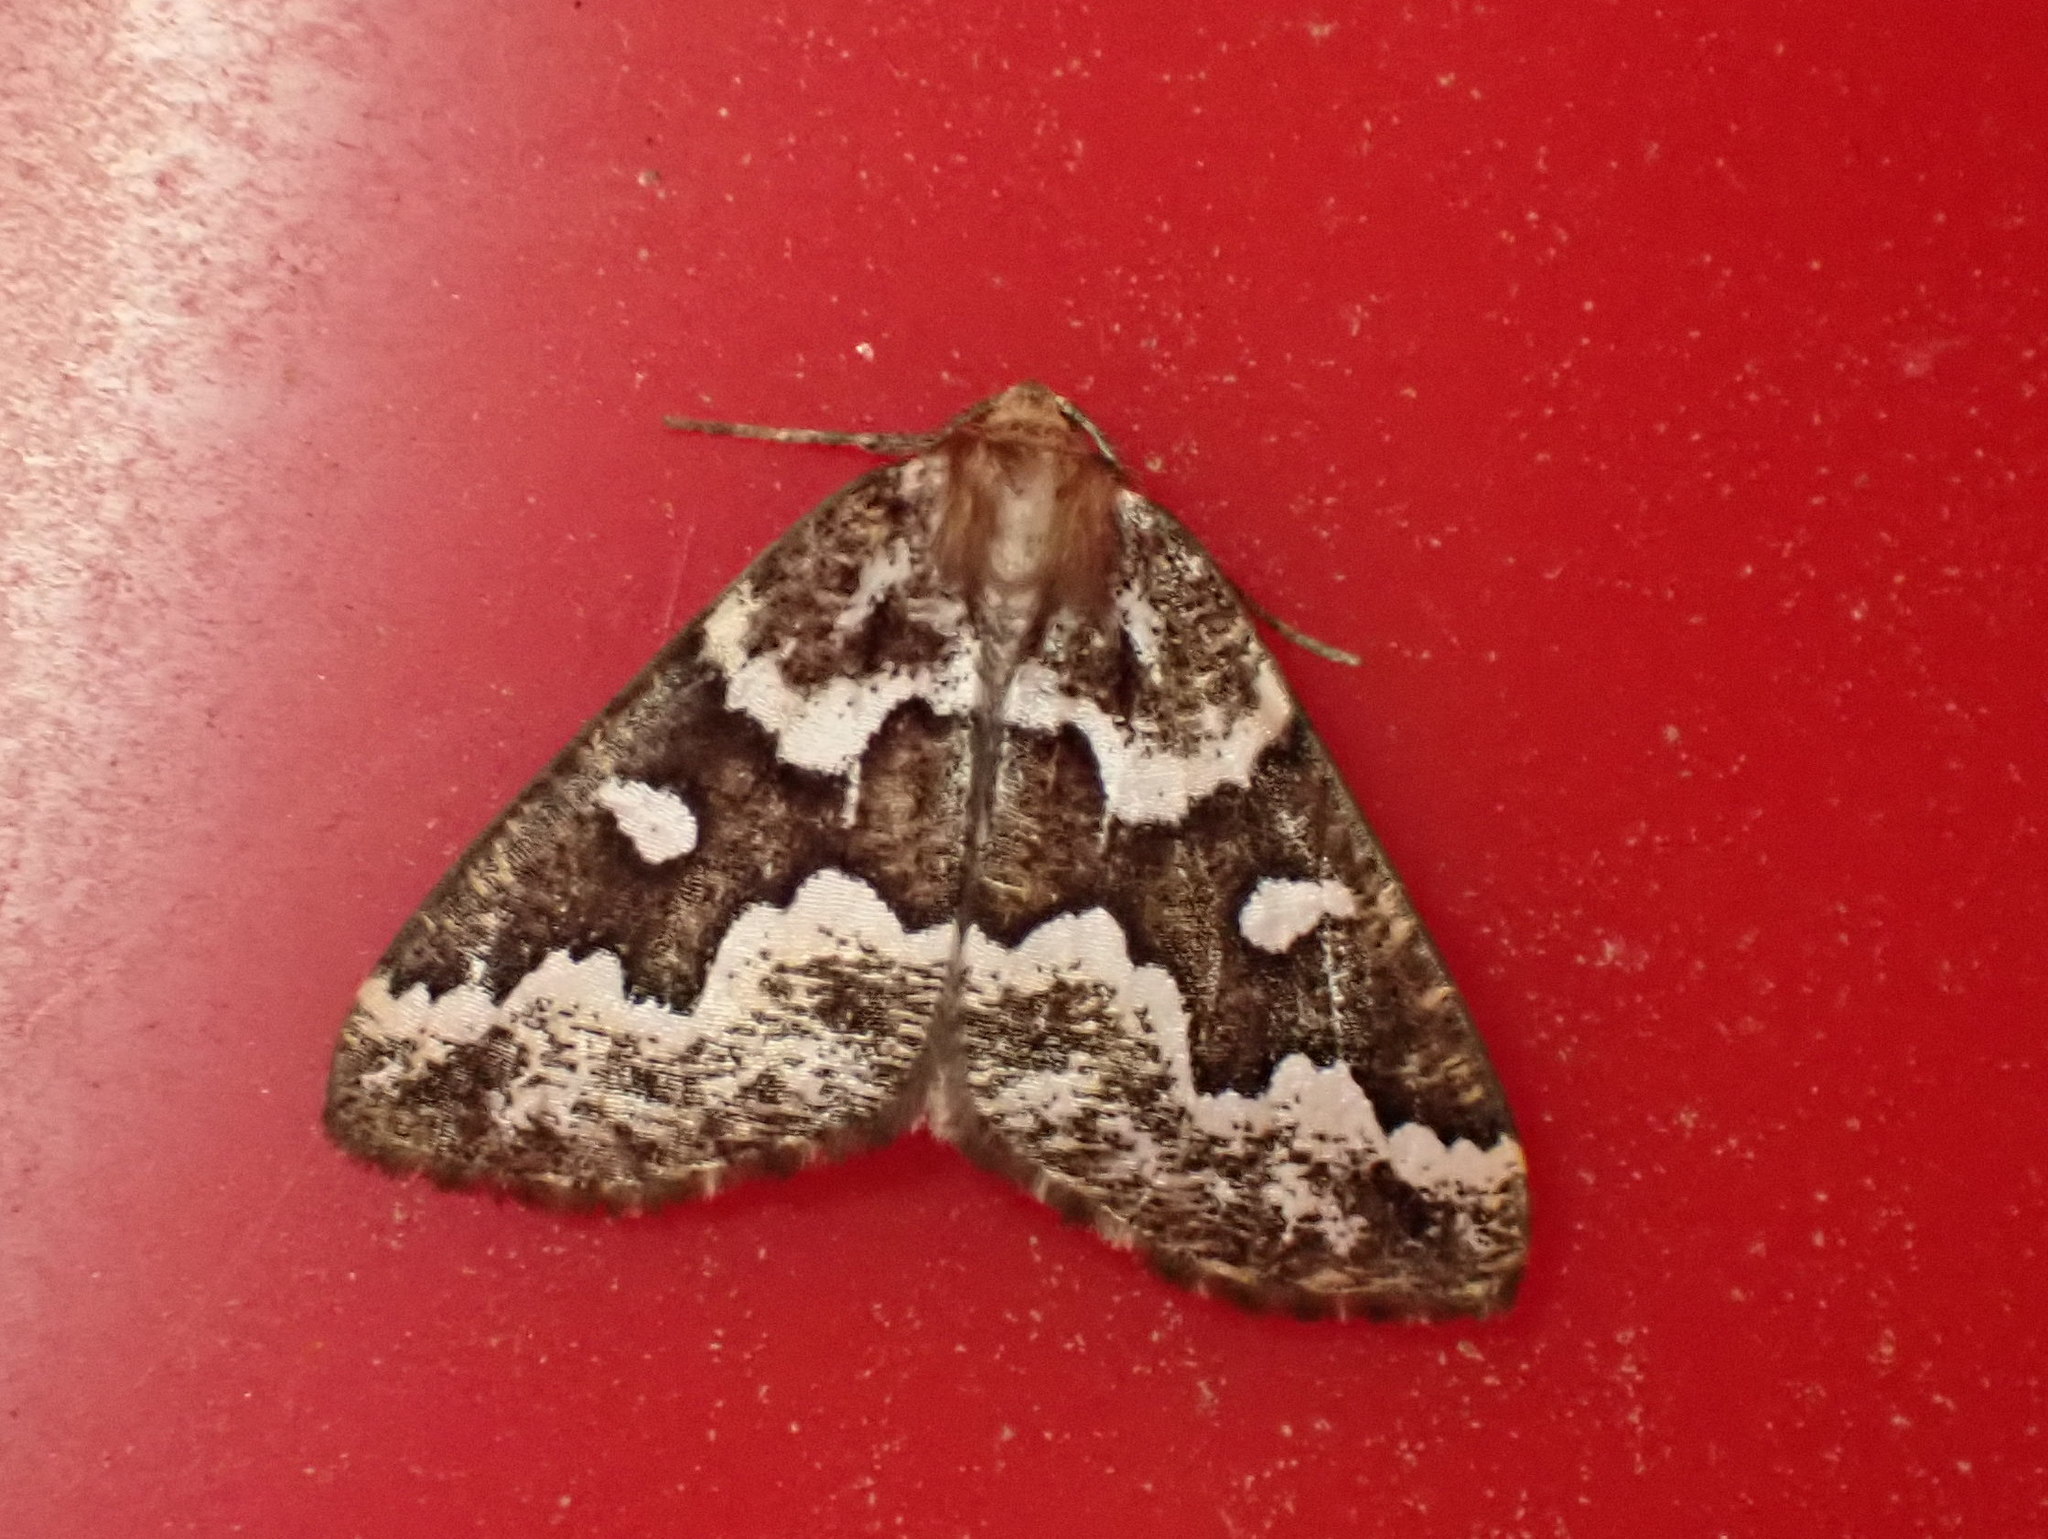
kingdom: Animalia
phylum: Arthropoda
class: Insecta
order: Lepidoptera
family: Geometridae
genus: Caripeta
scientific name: Caripeta divisata
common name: Gray spruce looper
